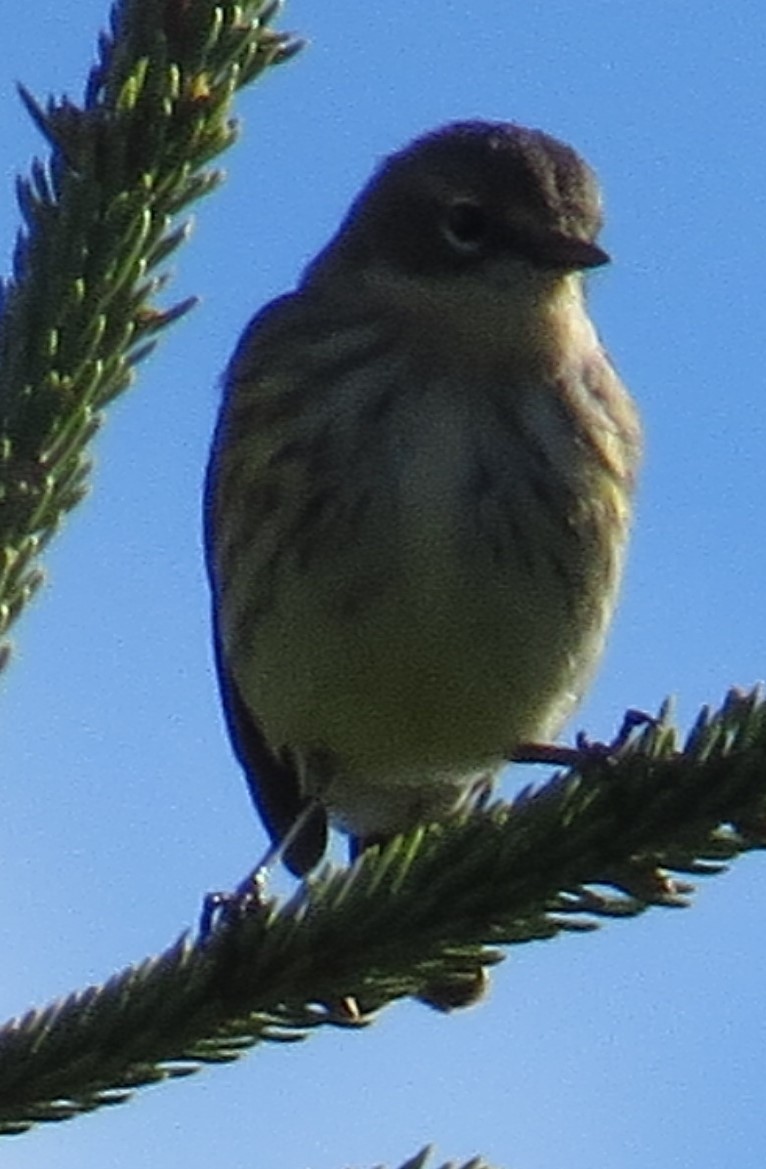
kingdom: Animalia
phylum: Chordata
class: Aves
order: Passeriformes
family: Parulidae
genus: Setophaga
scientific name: Setophaga coronata
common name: Myrtle warbler
